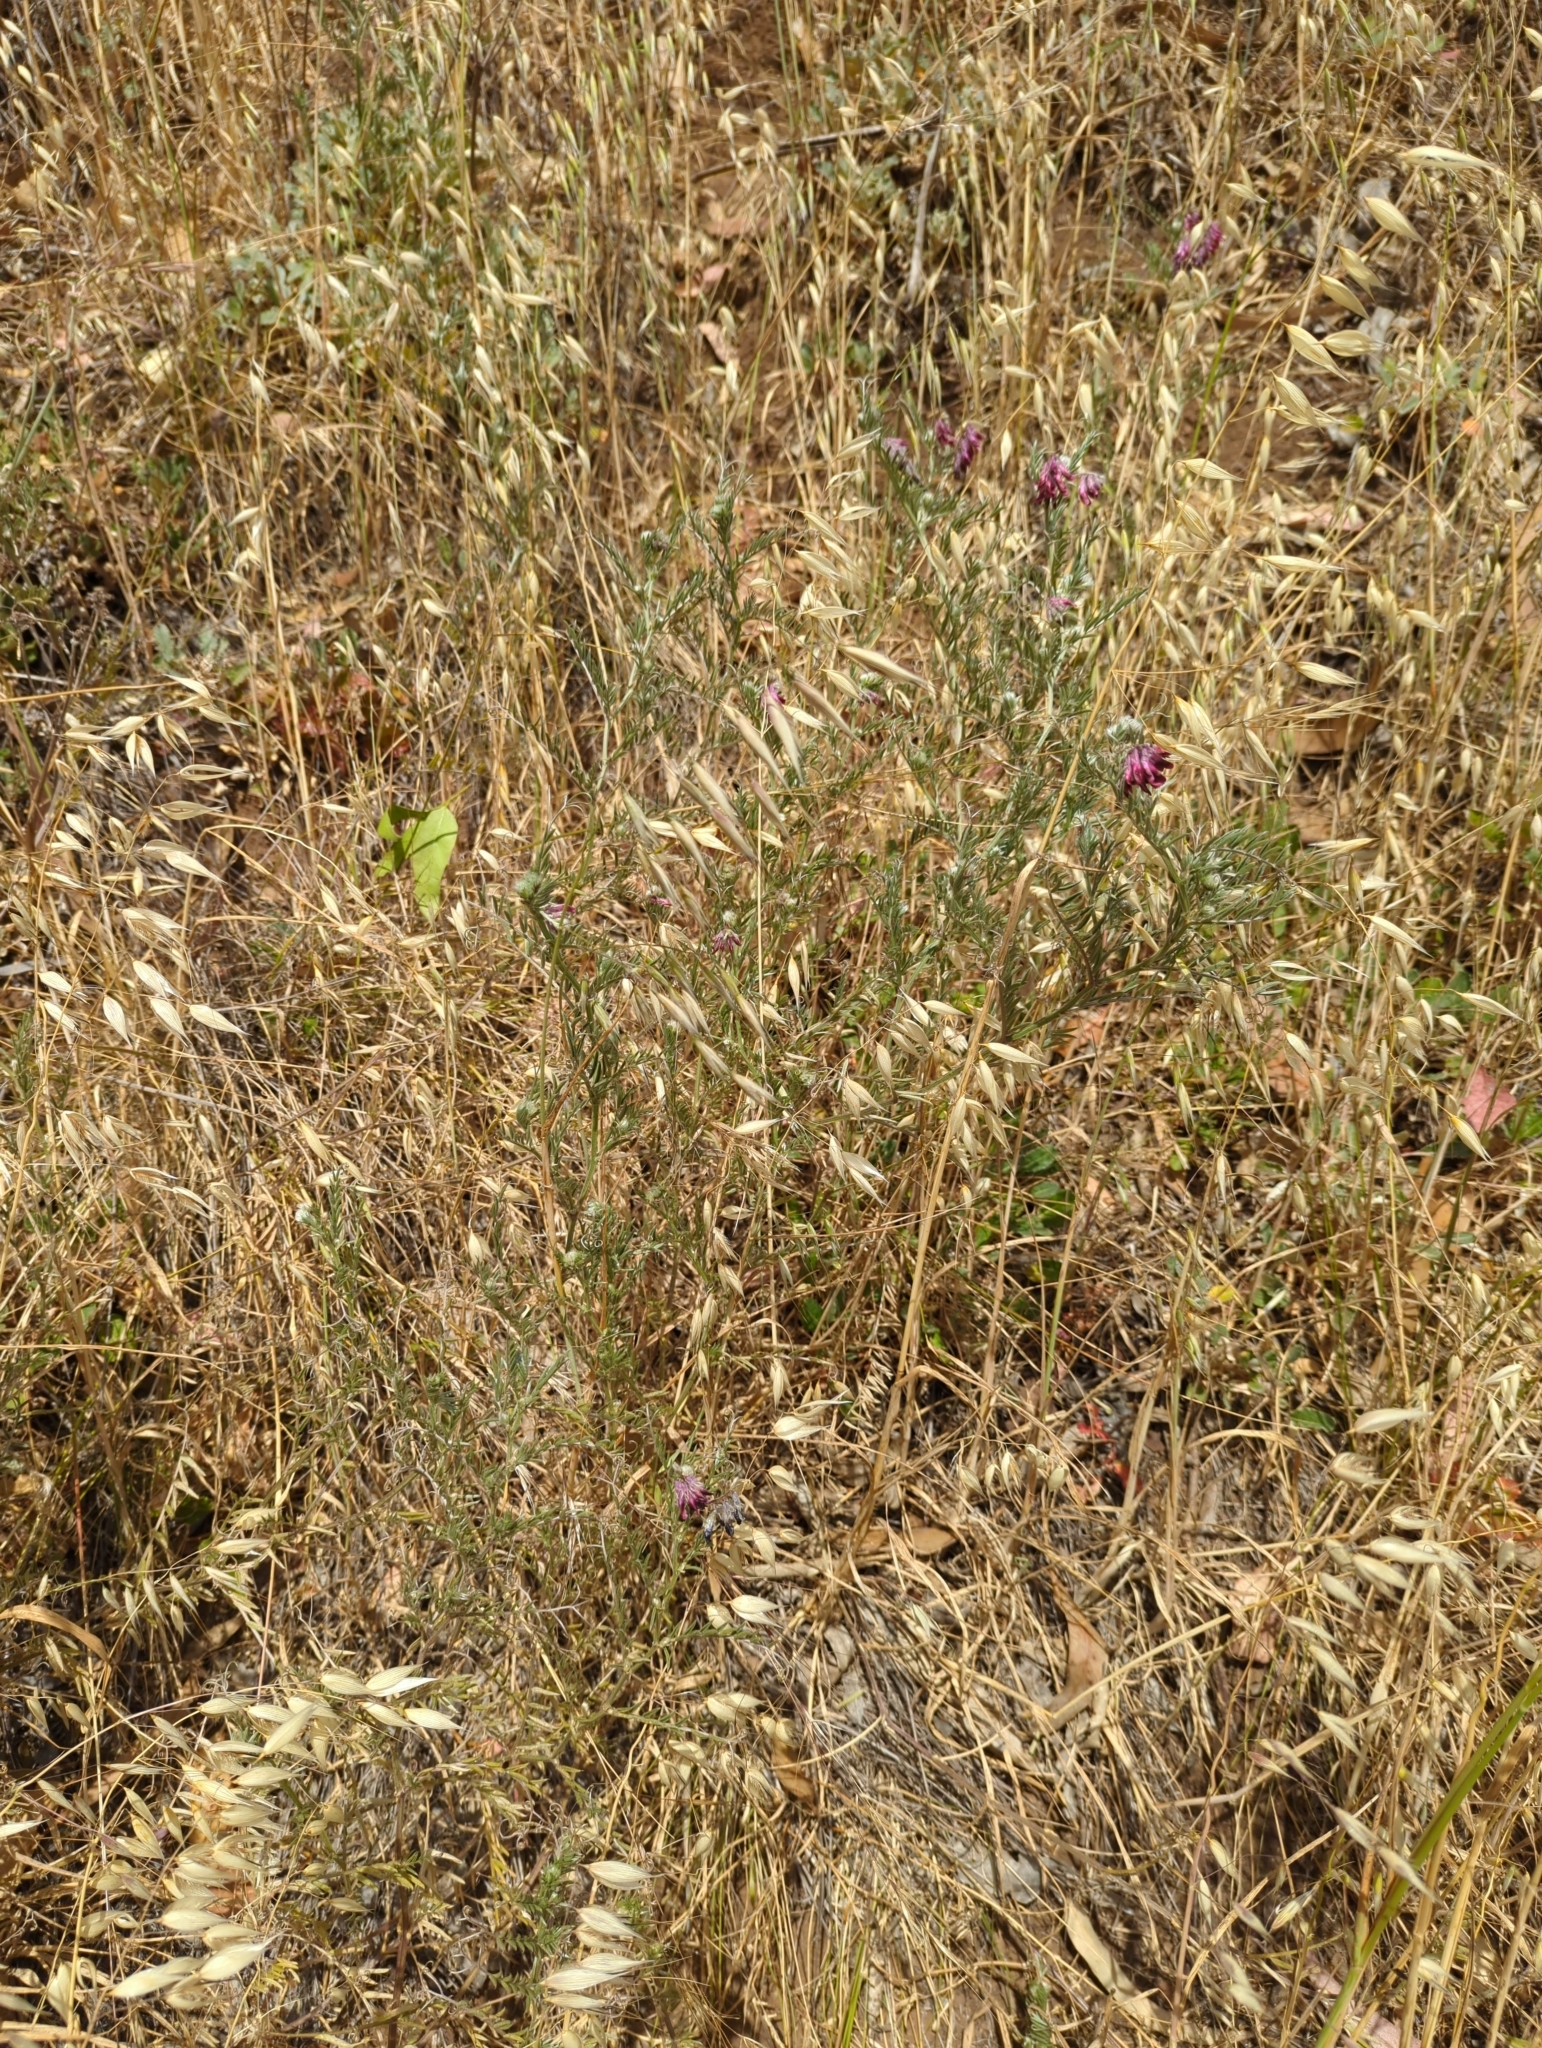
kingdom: Plantae
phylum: Tracheophyta
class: Magnoliopsida
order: Fabales
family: Fabaceae
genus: Vicia
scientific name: Vicia benghalensis
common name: Purple vetch
